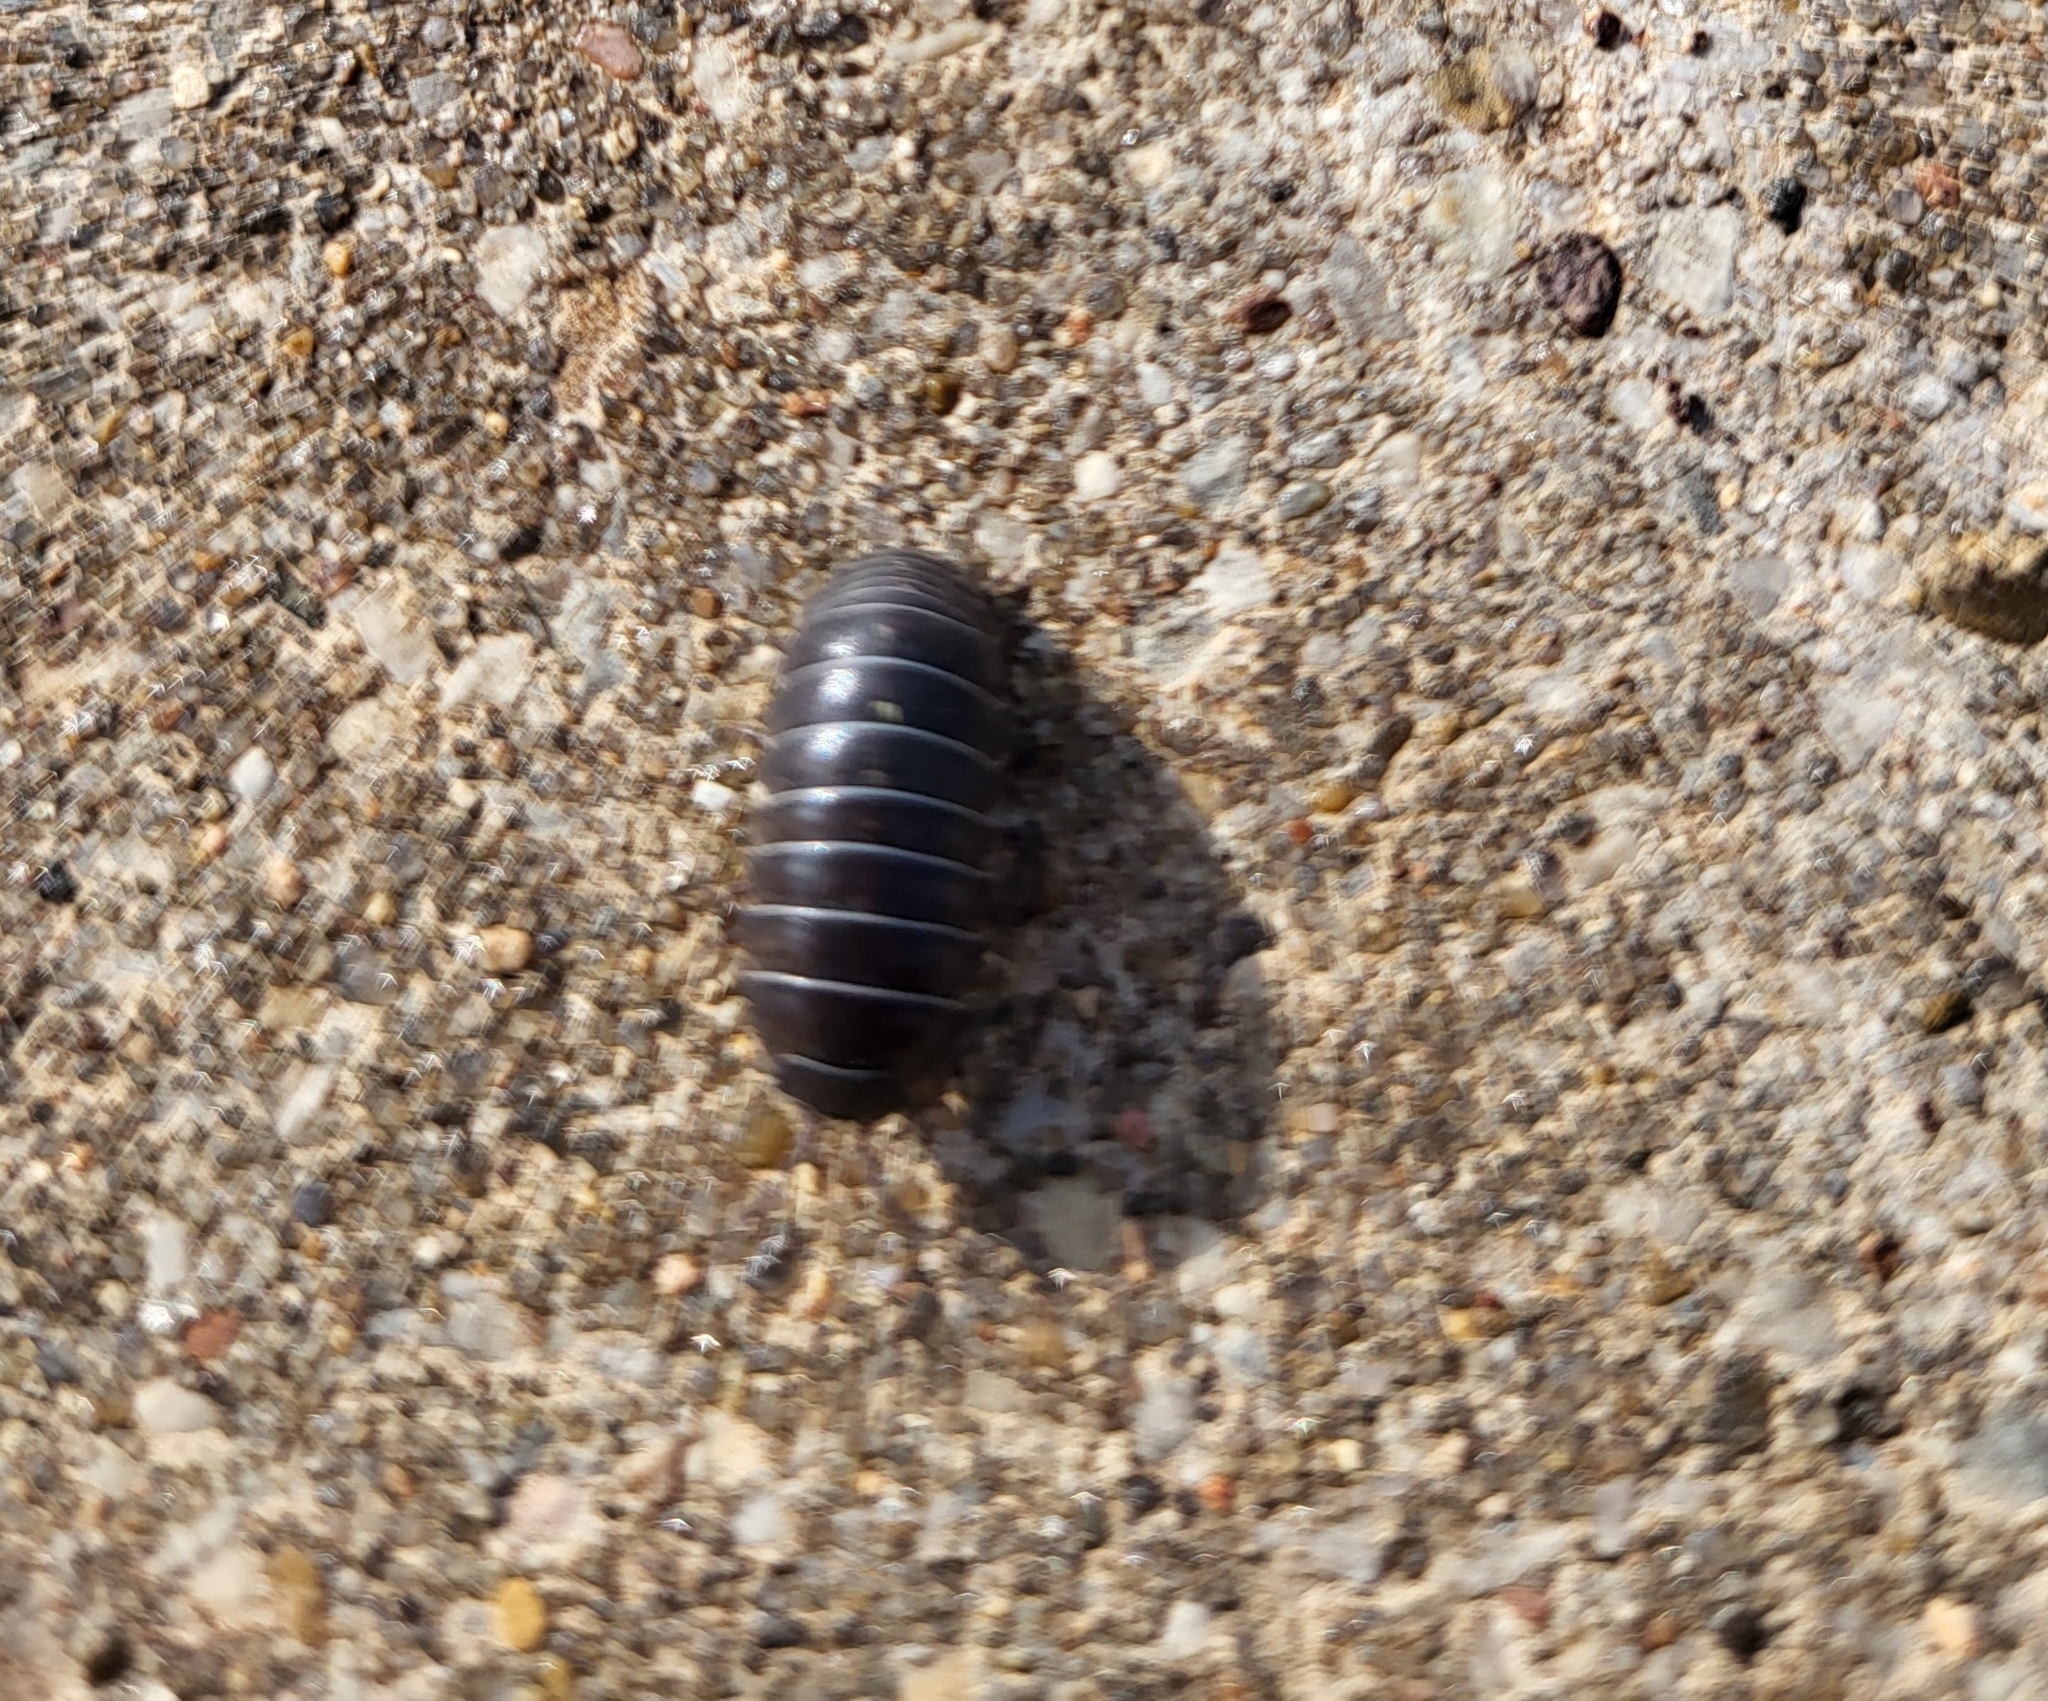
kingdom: Animalia
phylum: Arthropoda
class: Malacostraca
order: Isopoda
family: Armadillidiidae
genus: Armadillidium
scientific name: Armadillidium vulgare
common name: Common pill woodlouse
